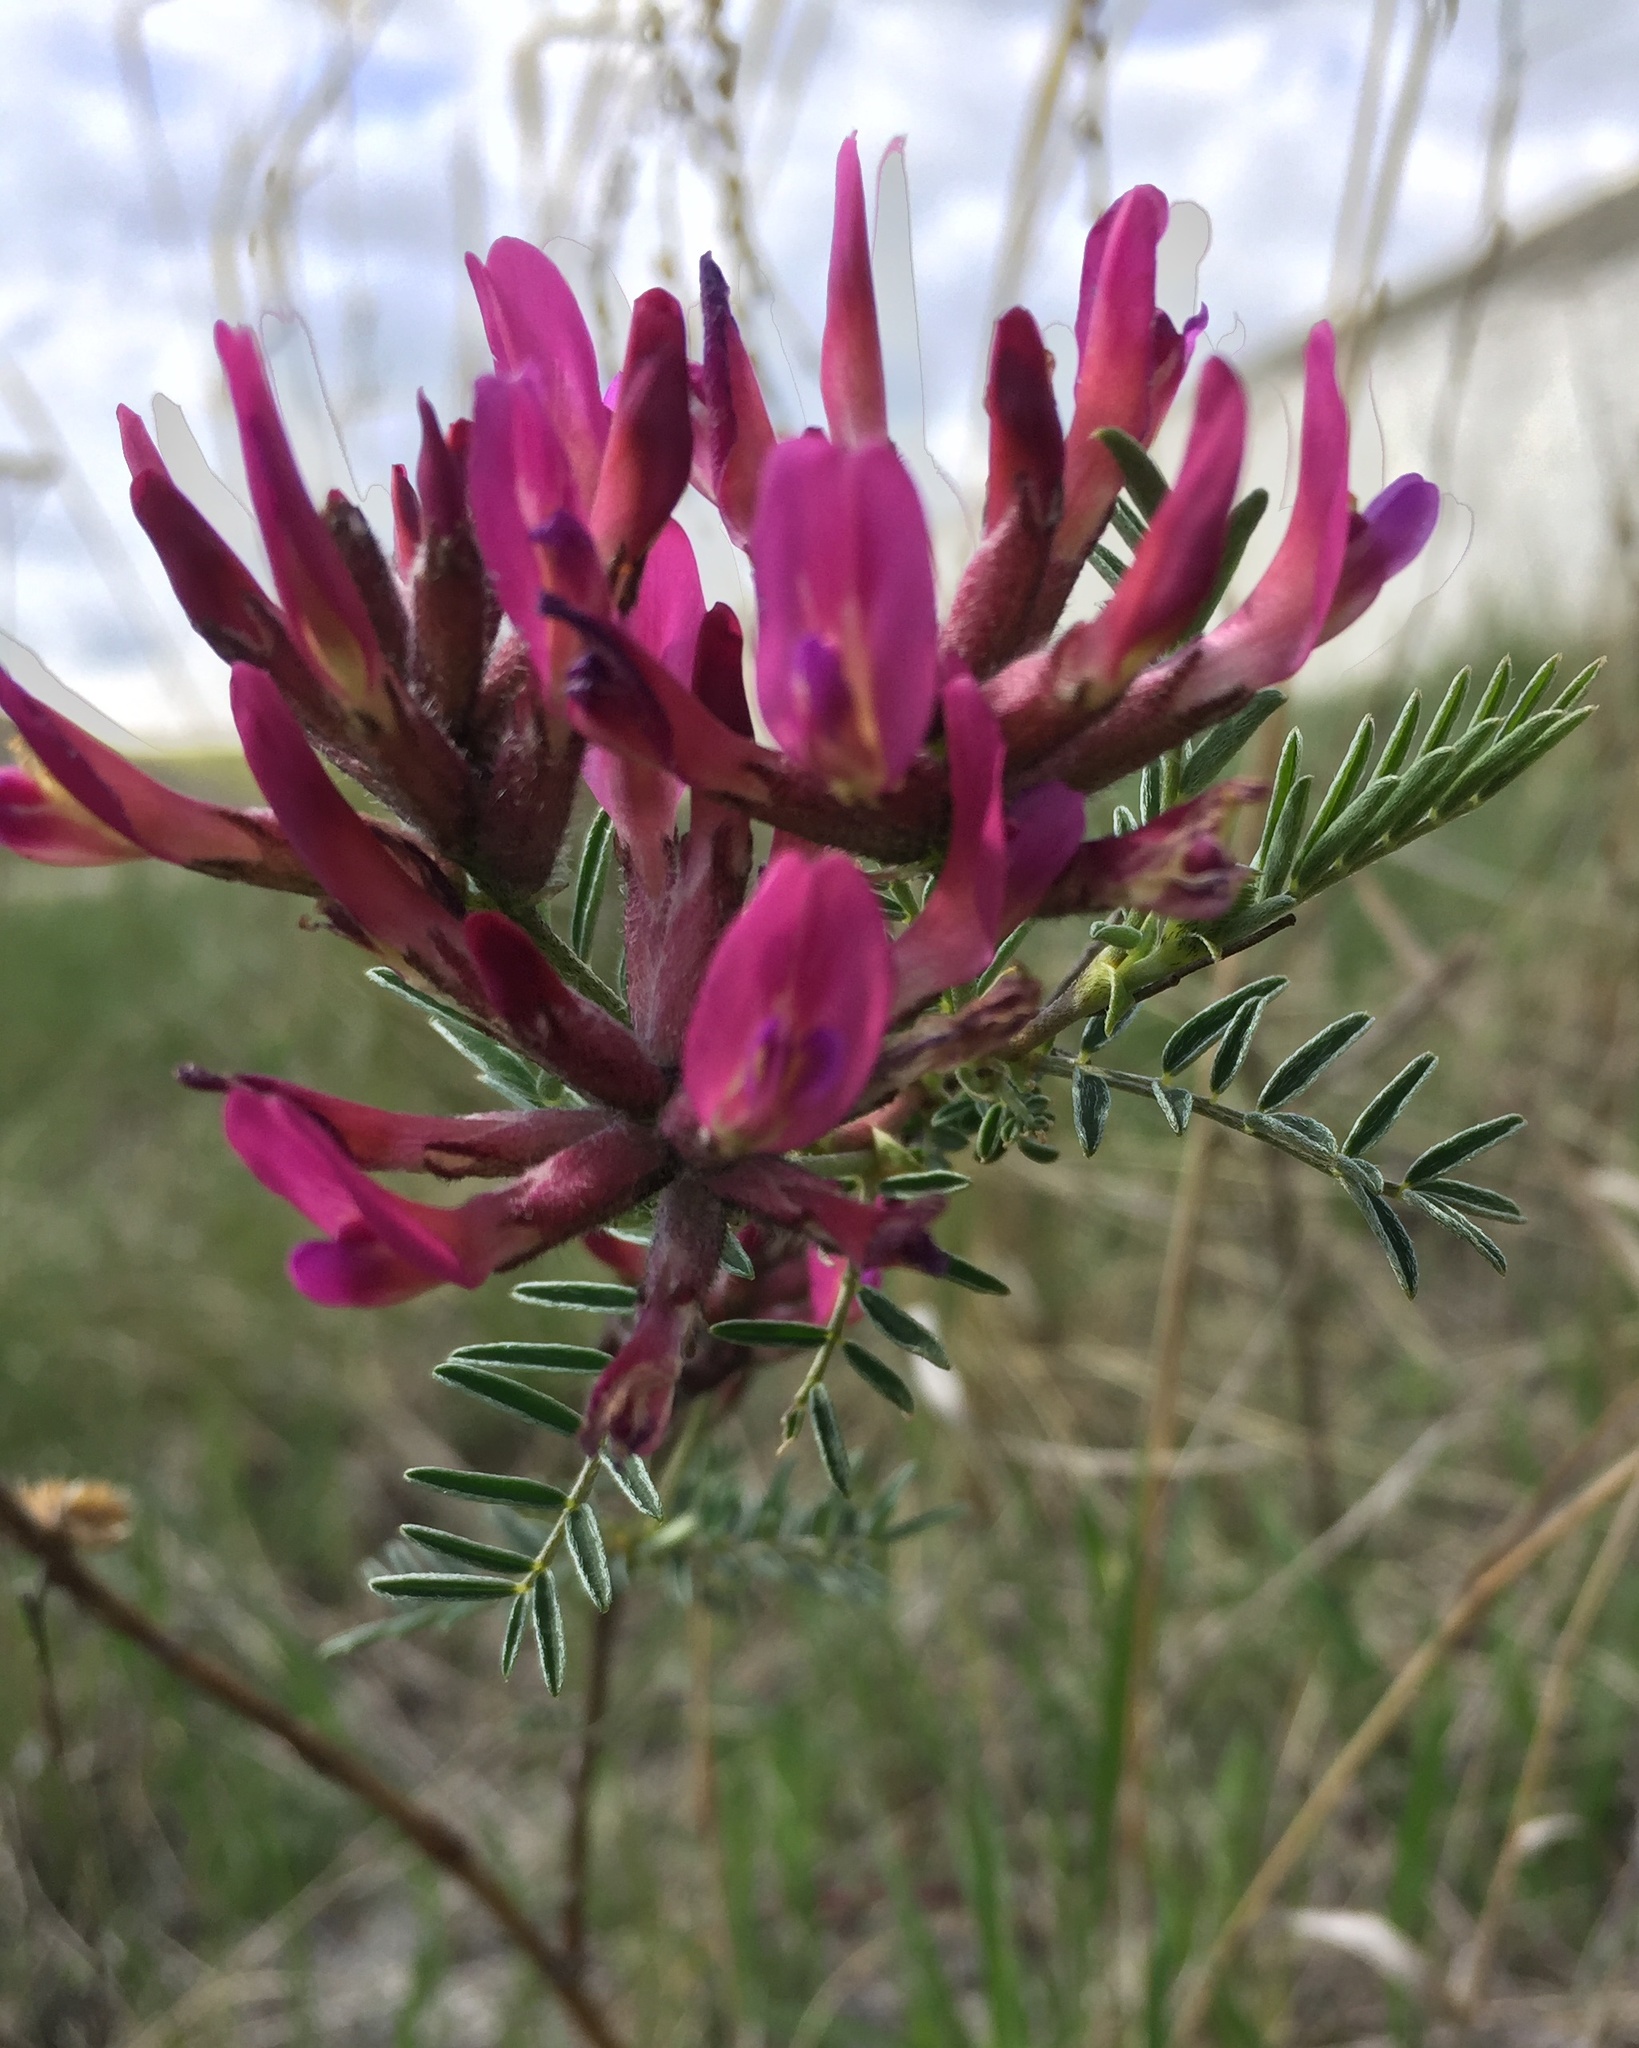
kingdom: Plantae
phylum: Tracheophyta
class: Magnoliopsida
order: Fabales
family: Fabaceae
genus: Astragalus
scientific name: Astragalus cornutus
